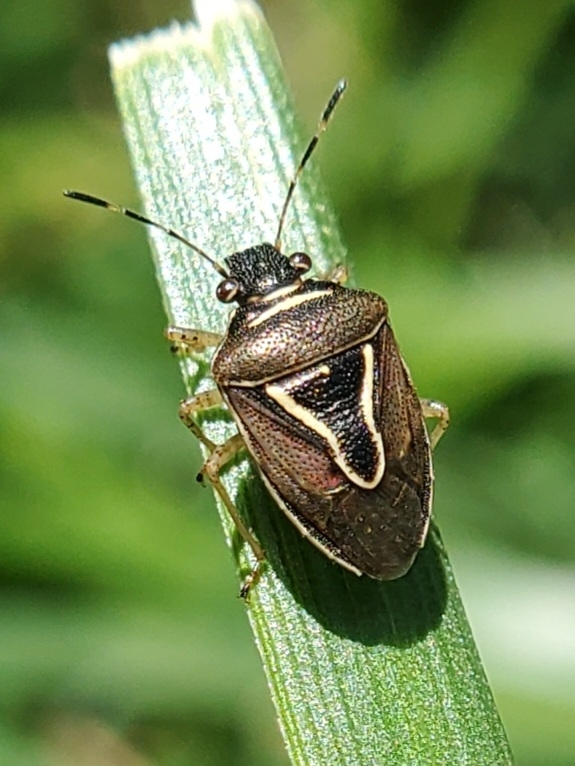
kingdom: Animalia
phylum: Arthropoda
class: Insecta
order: Hemiptera
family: Pentatomidae
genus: Mormidea
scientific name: Mormidea lugens
